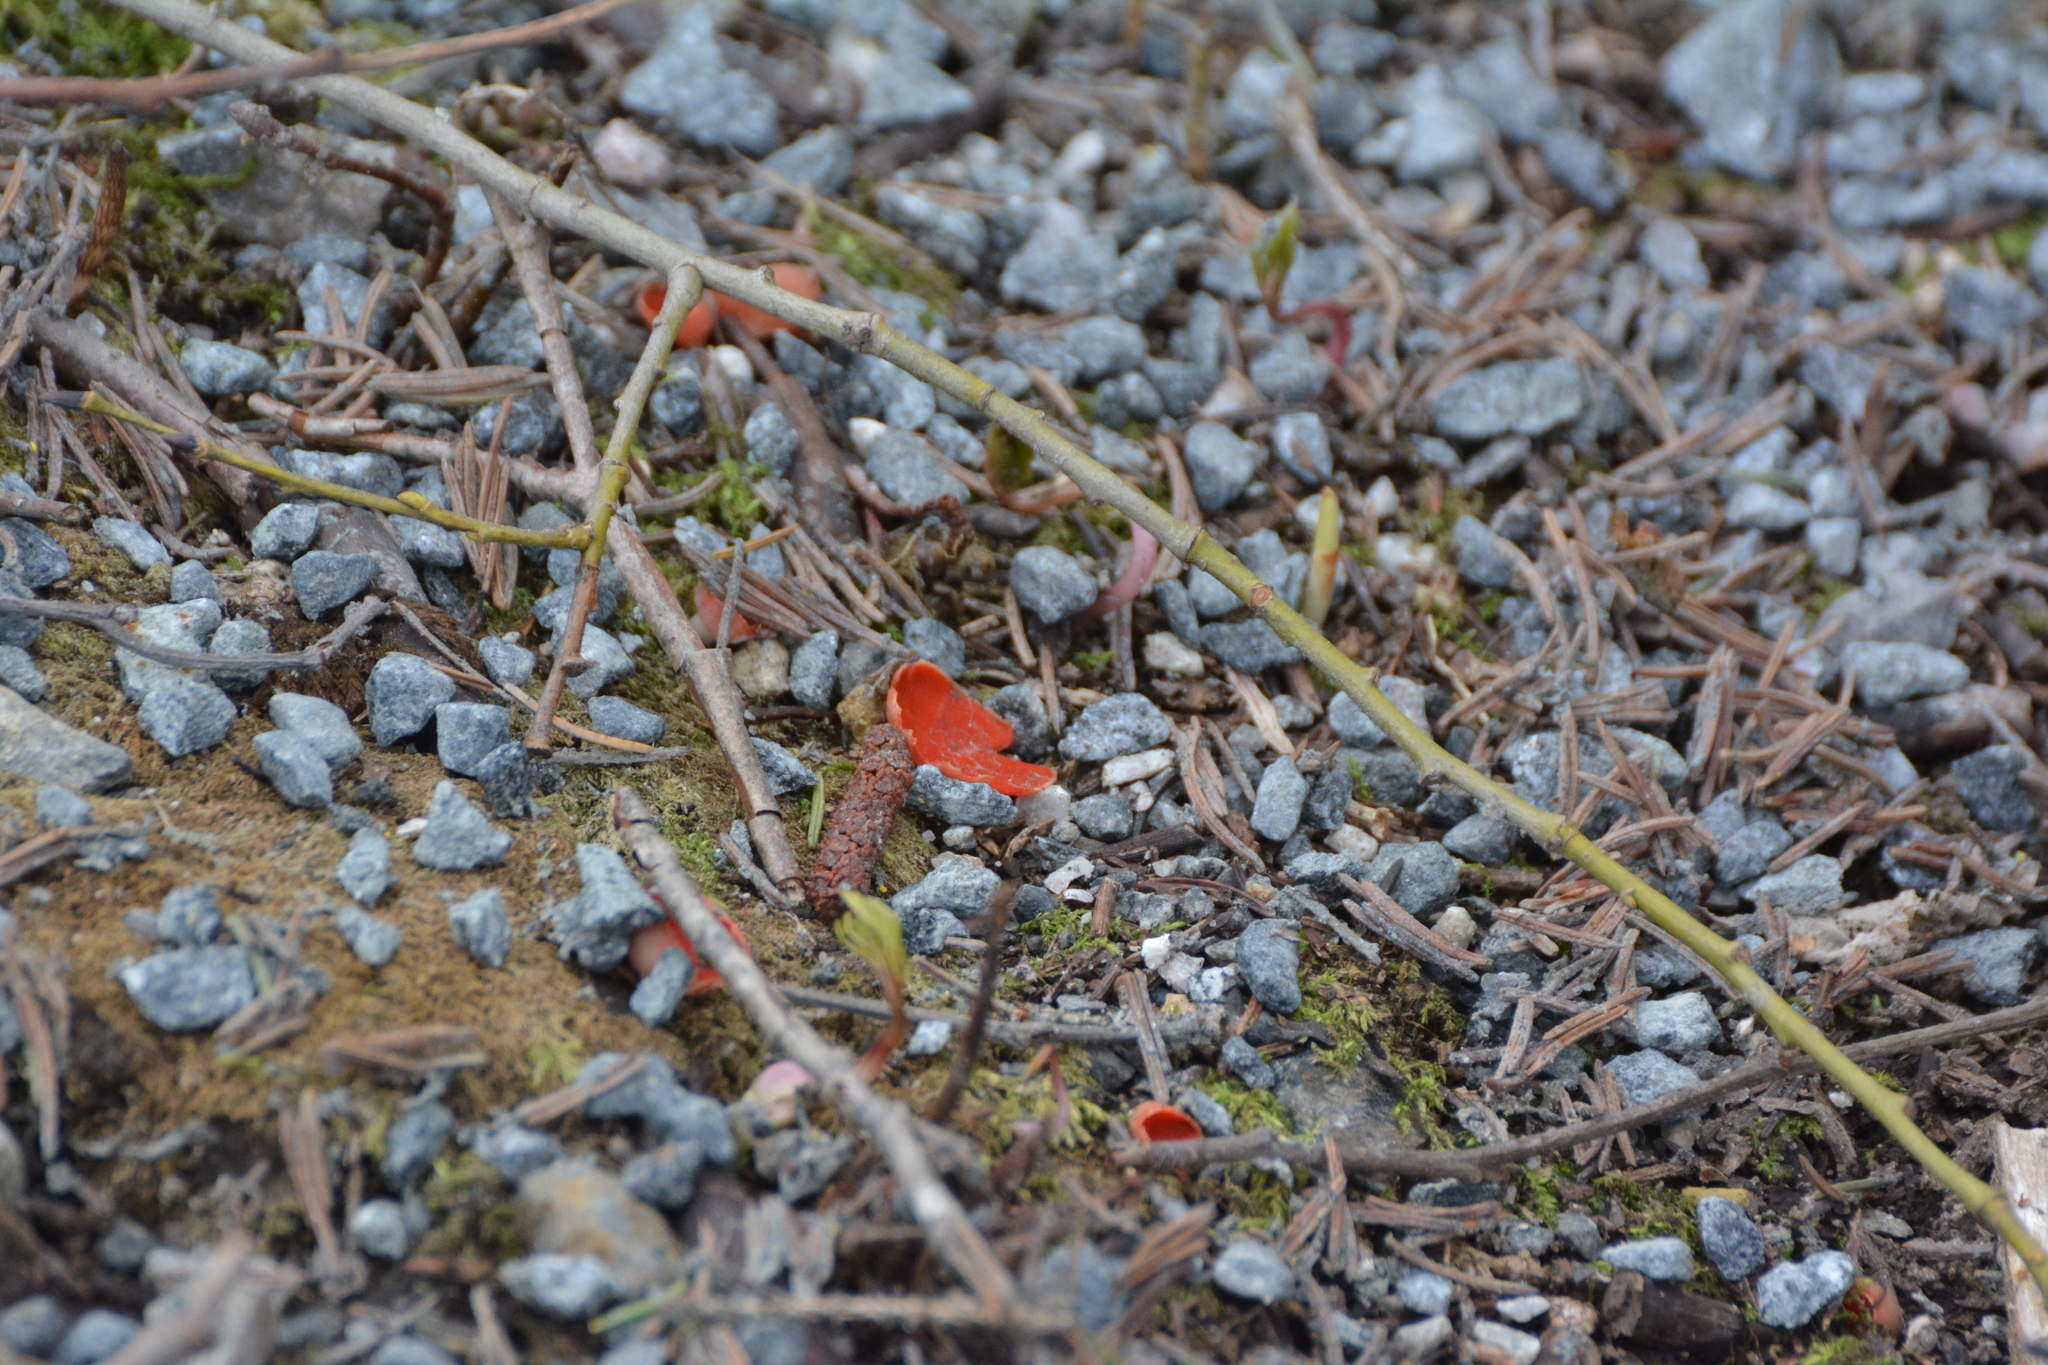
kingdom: Fungi
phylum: Ascomycota
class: Pezizomycetes
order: Pezizales
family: Sarcoscyphaceae
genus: Sarcoscypha
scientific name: Sarcoscypha austriaca
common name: Scarlet elfcup
